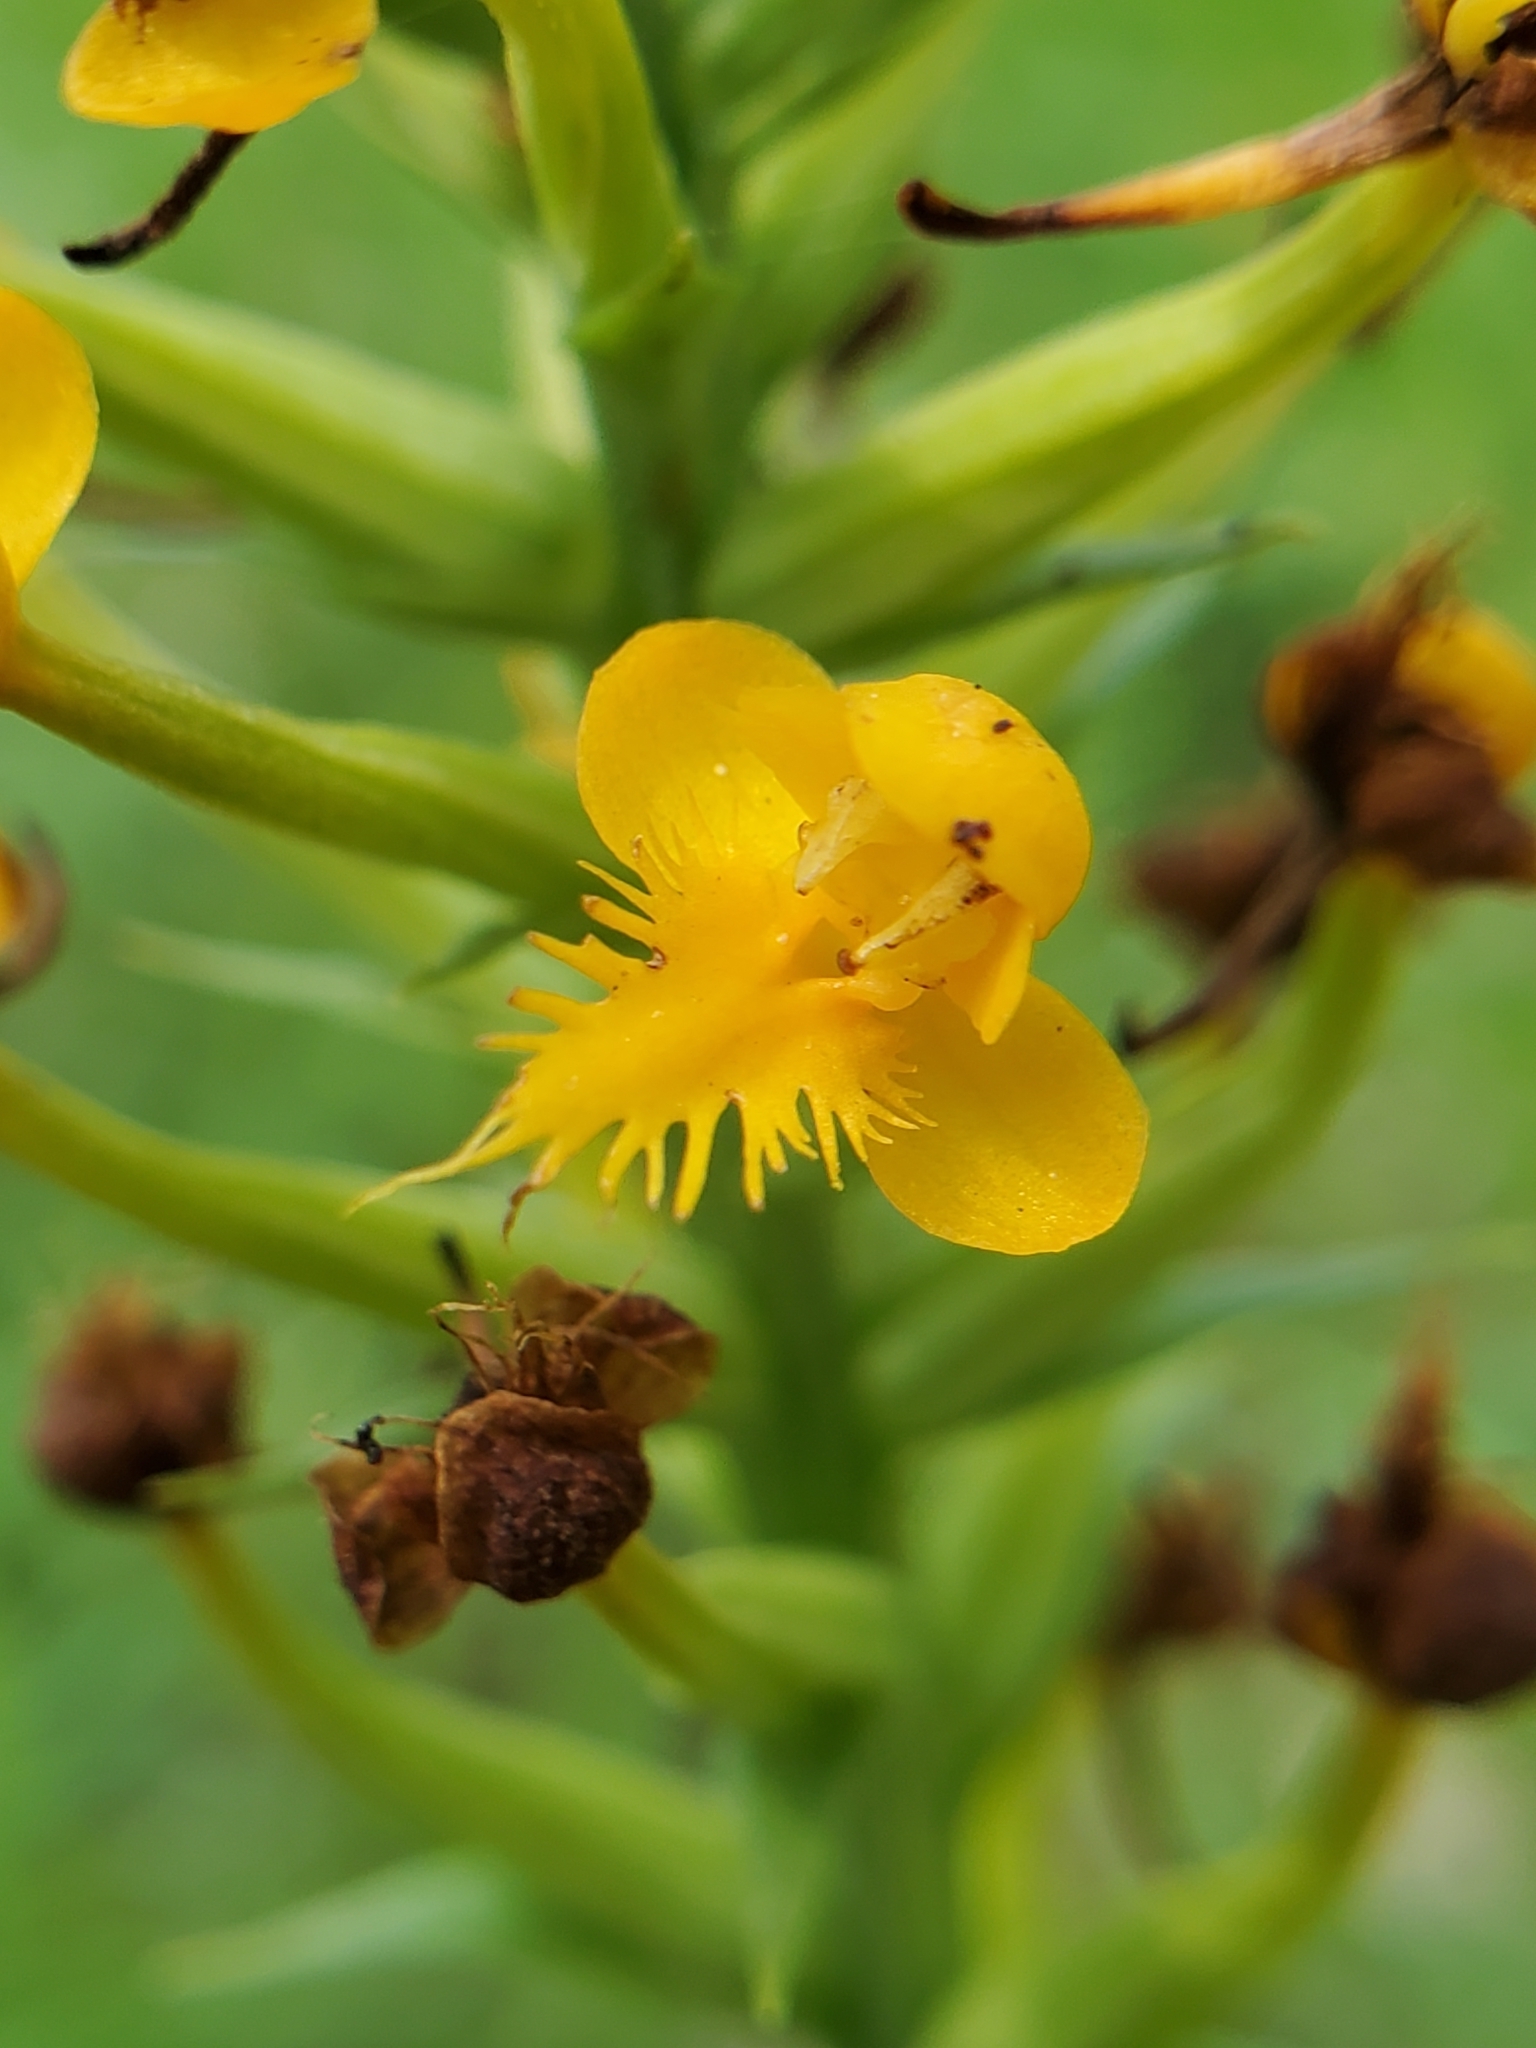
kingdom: Plantae
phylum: Tracheophyta
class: Liliopsida
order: Asparagales
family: Orchidaceae
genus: Platanthera
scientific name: Platanthera cristata
